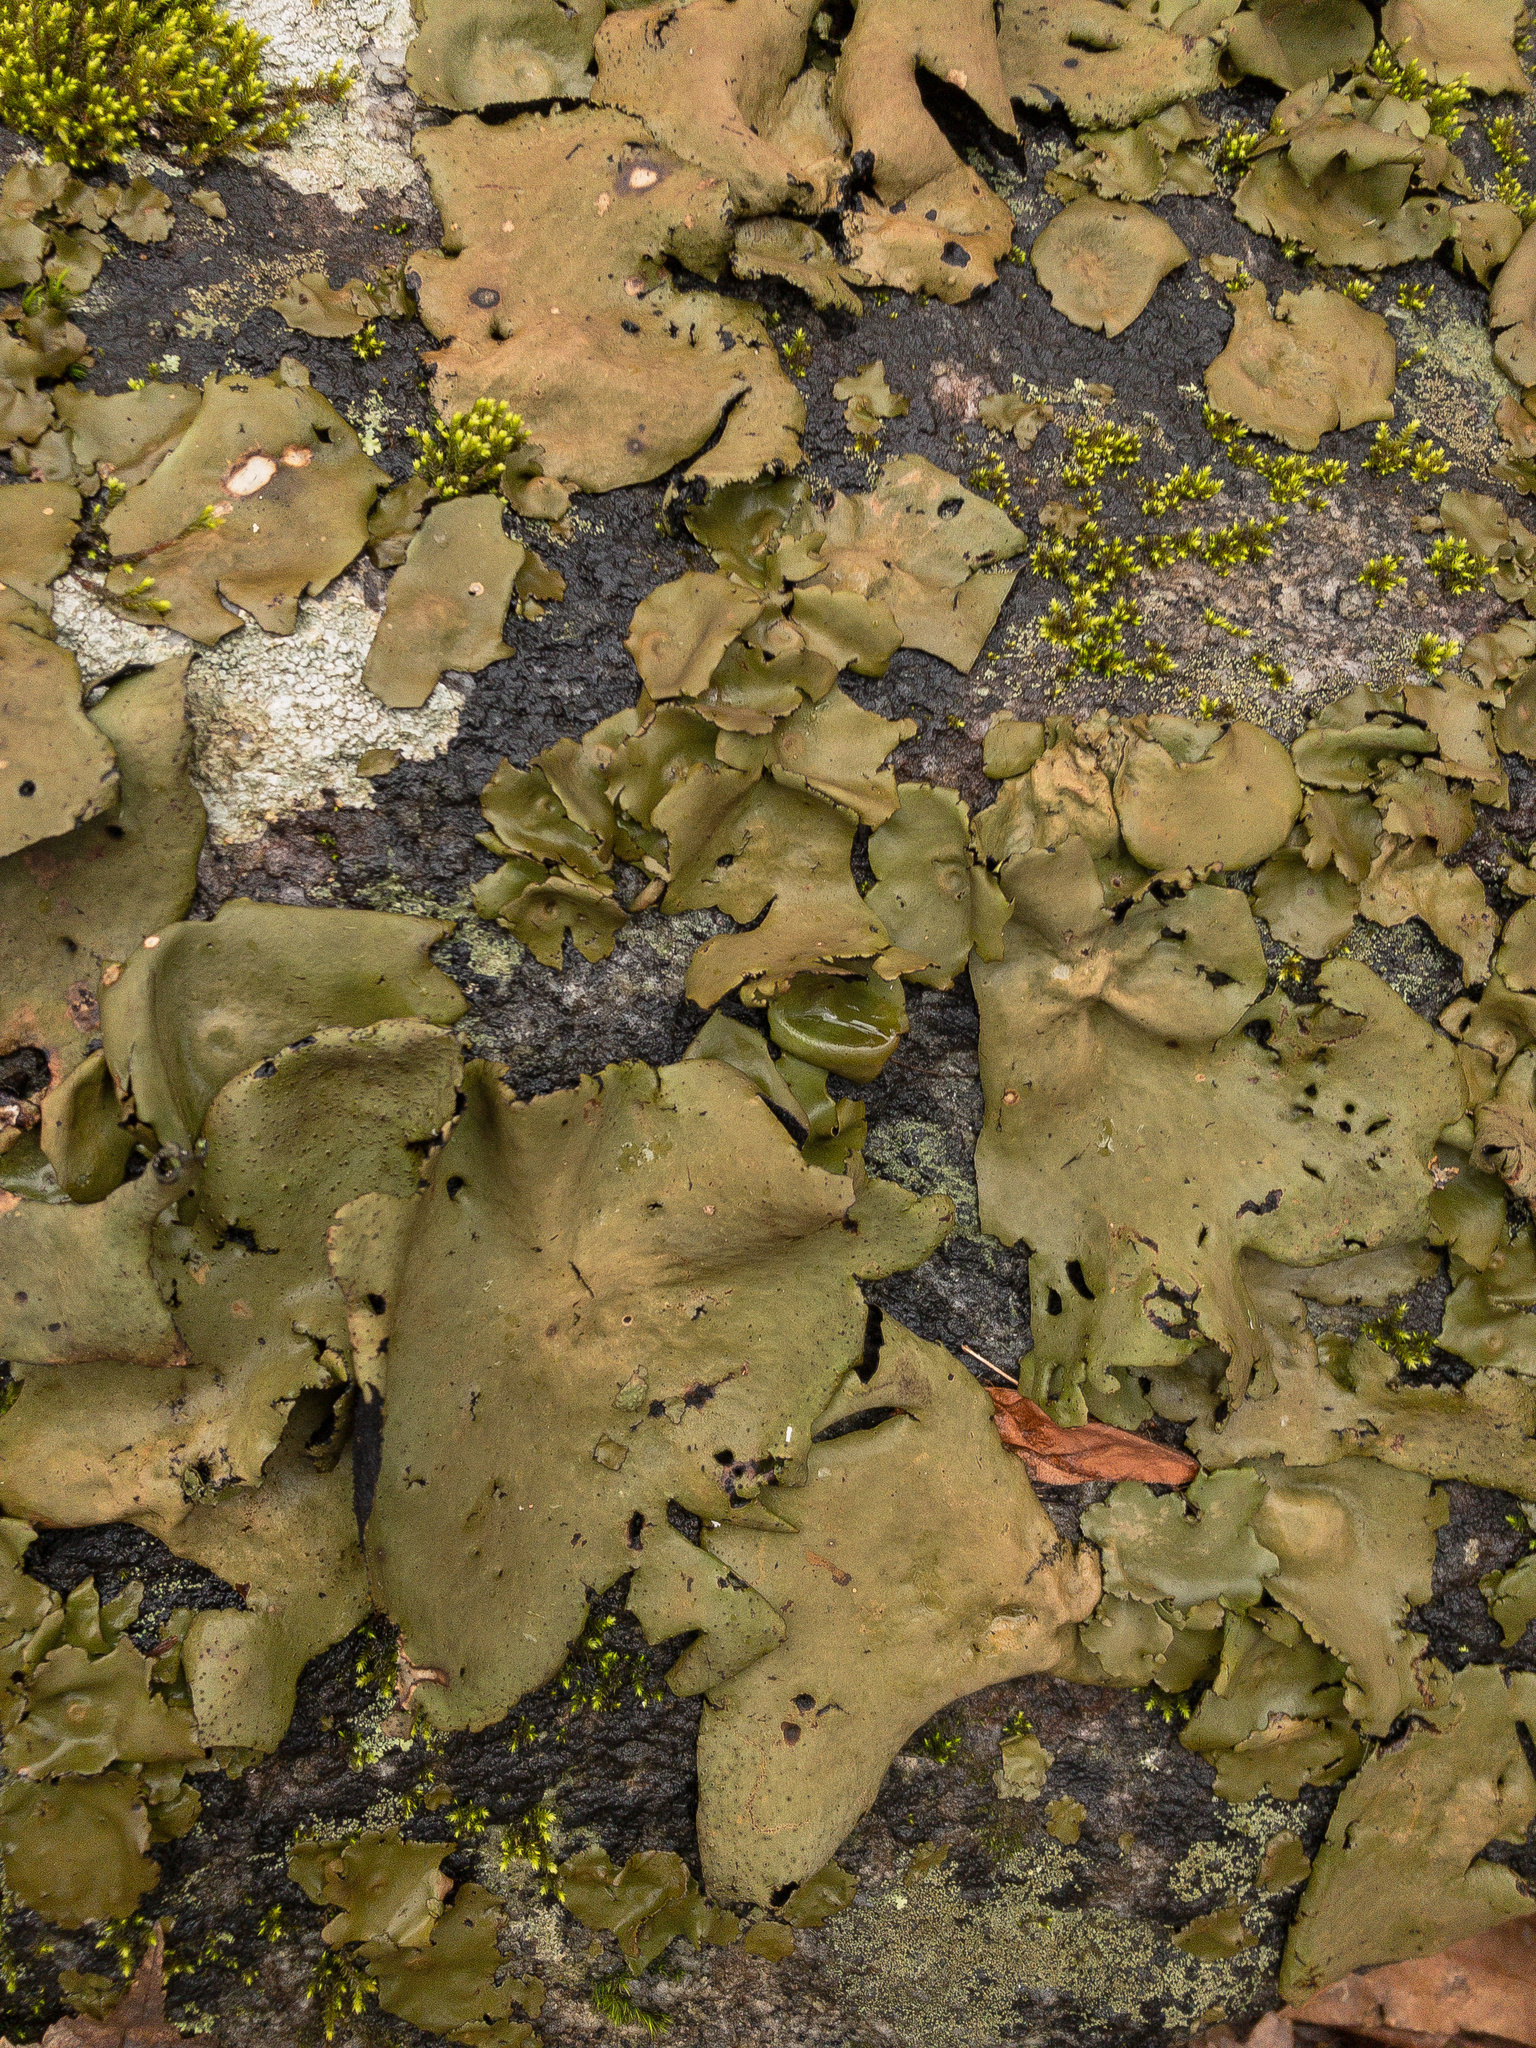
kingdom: Fungi
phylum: Ascomycota
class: Lecanoromycetes
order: Umbilicariales
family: Umbilicariaceae
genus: Umbilicaria
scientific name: Umbilicaria mammulata
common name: Smooth rock tripe
